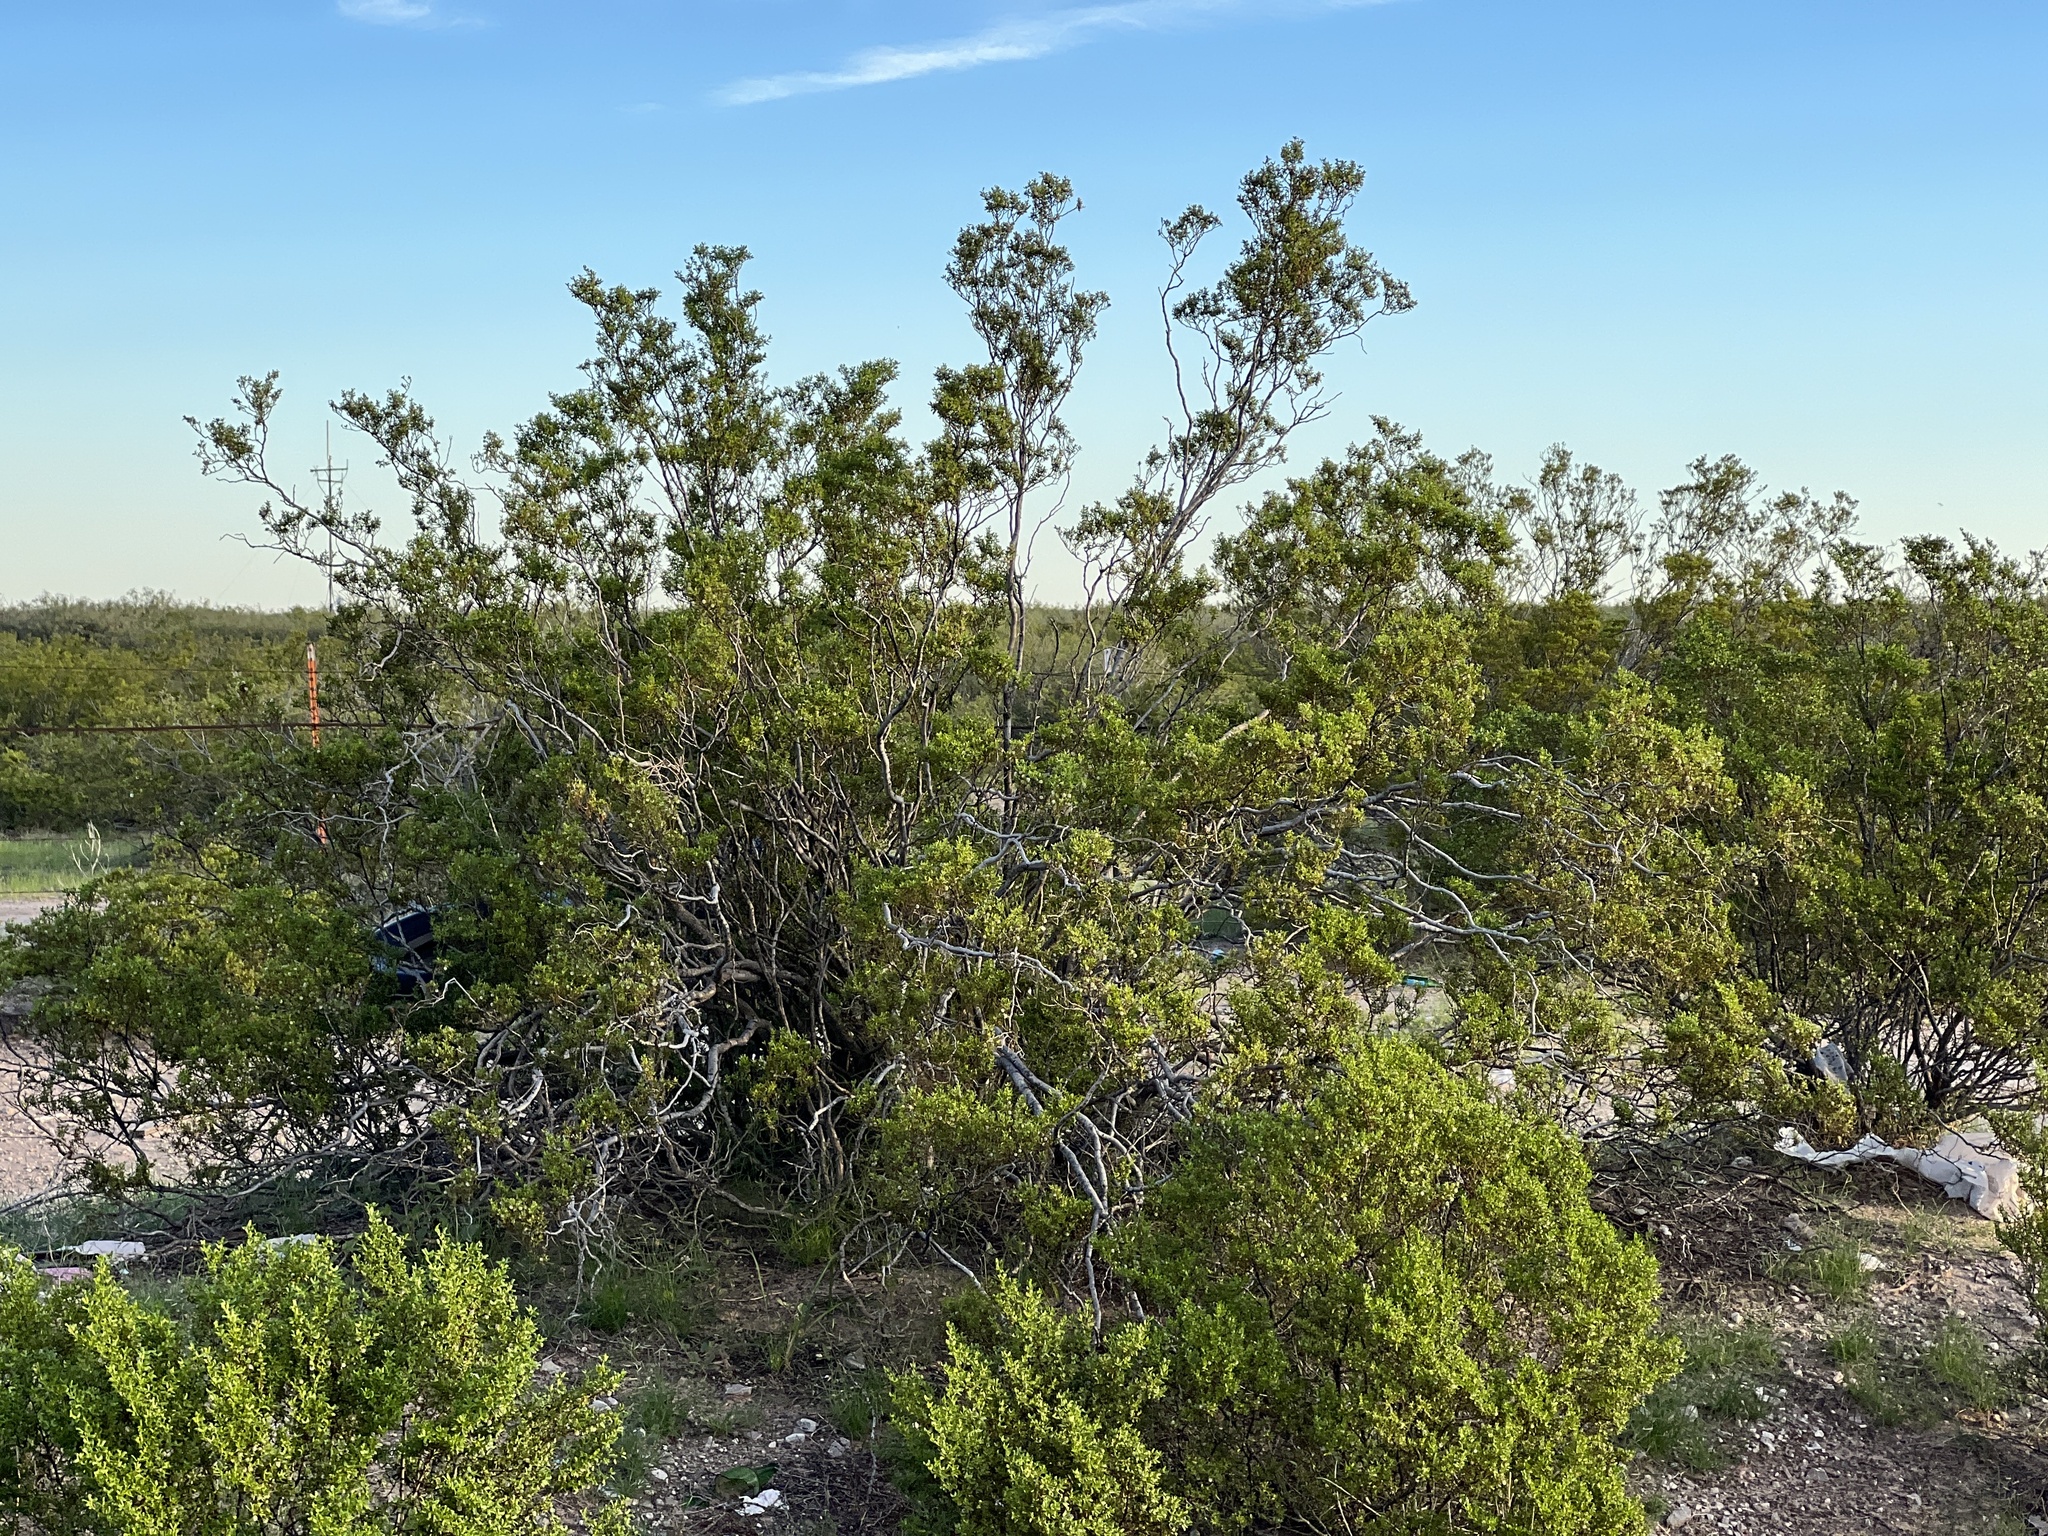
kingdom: Plantae
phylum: Tracheophyta
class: Magnoliopsida
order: Zygophyllales
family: Zygophyllaceae
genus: Larrea
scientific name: Larrea tridentata
